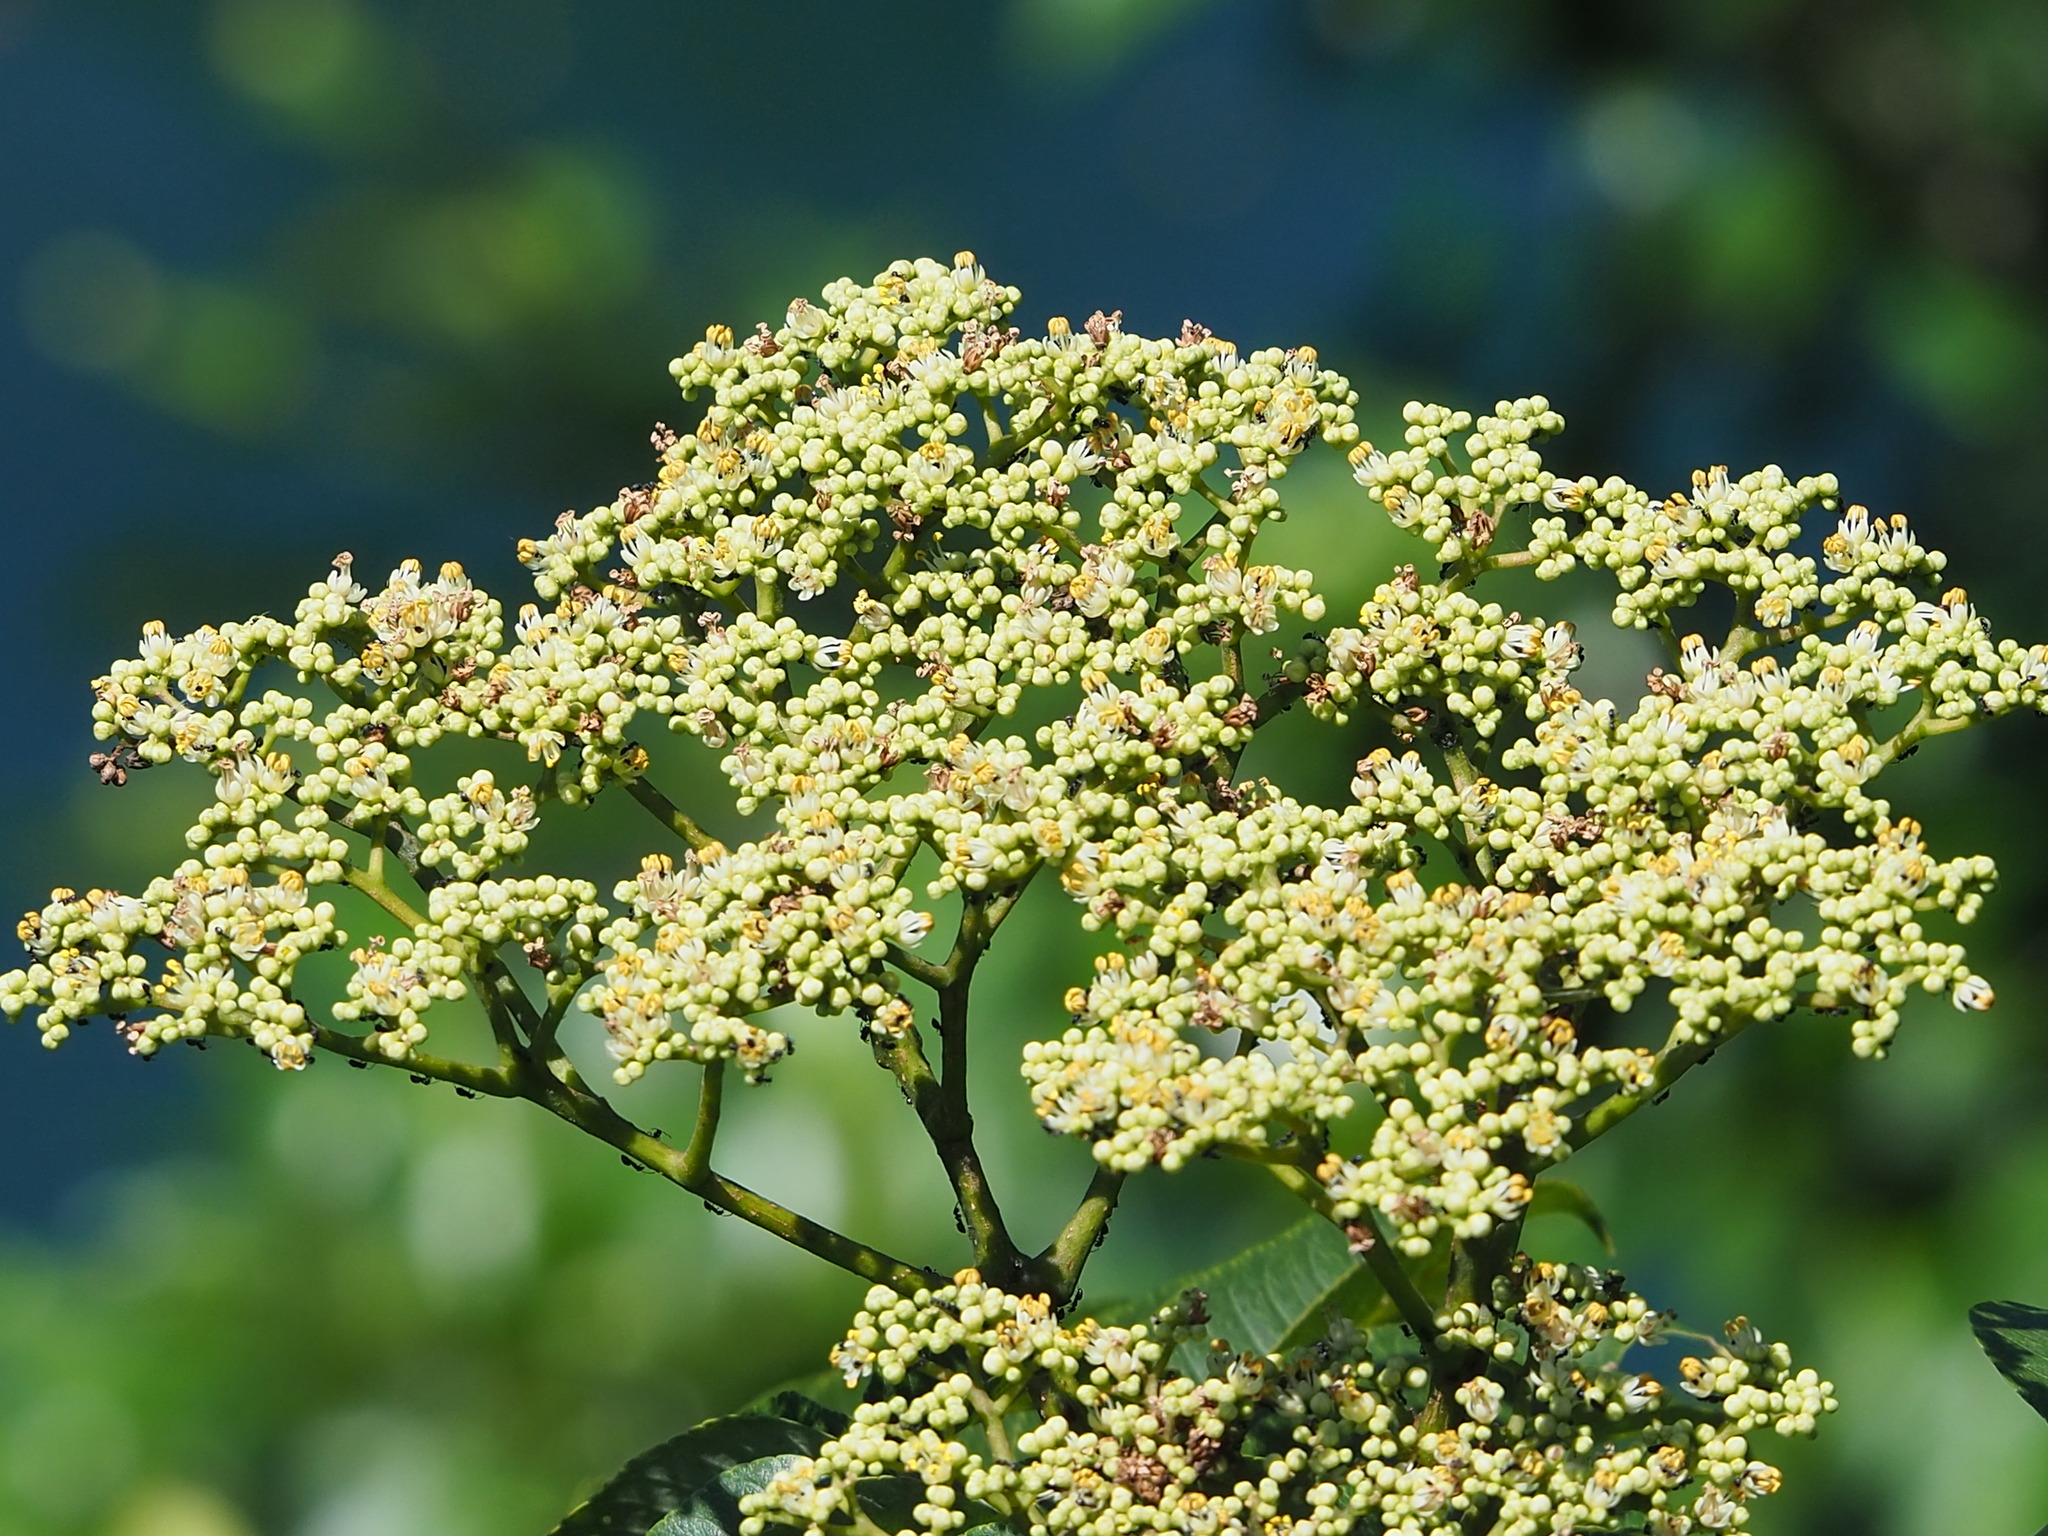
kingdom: Plantae
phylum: Tracheophyta
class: Magnoliopsida
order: Sapindales
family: Rutaceae
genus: Zanthoxylum
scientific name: Zanthoxylum ailanthoides
